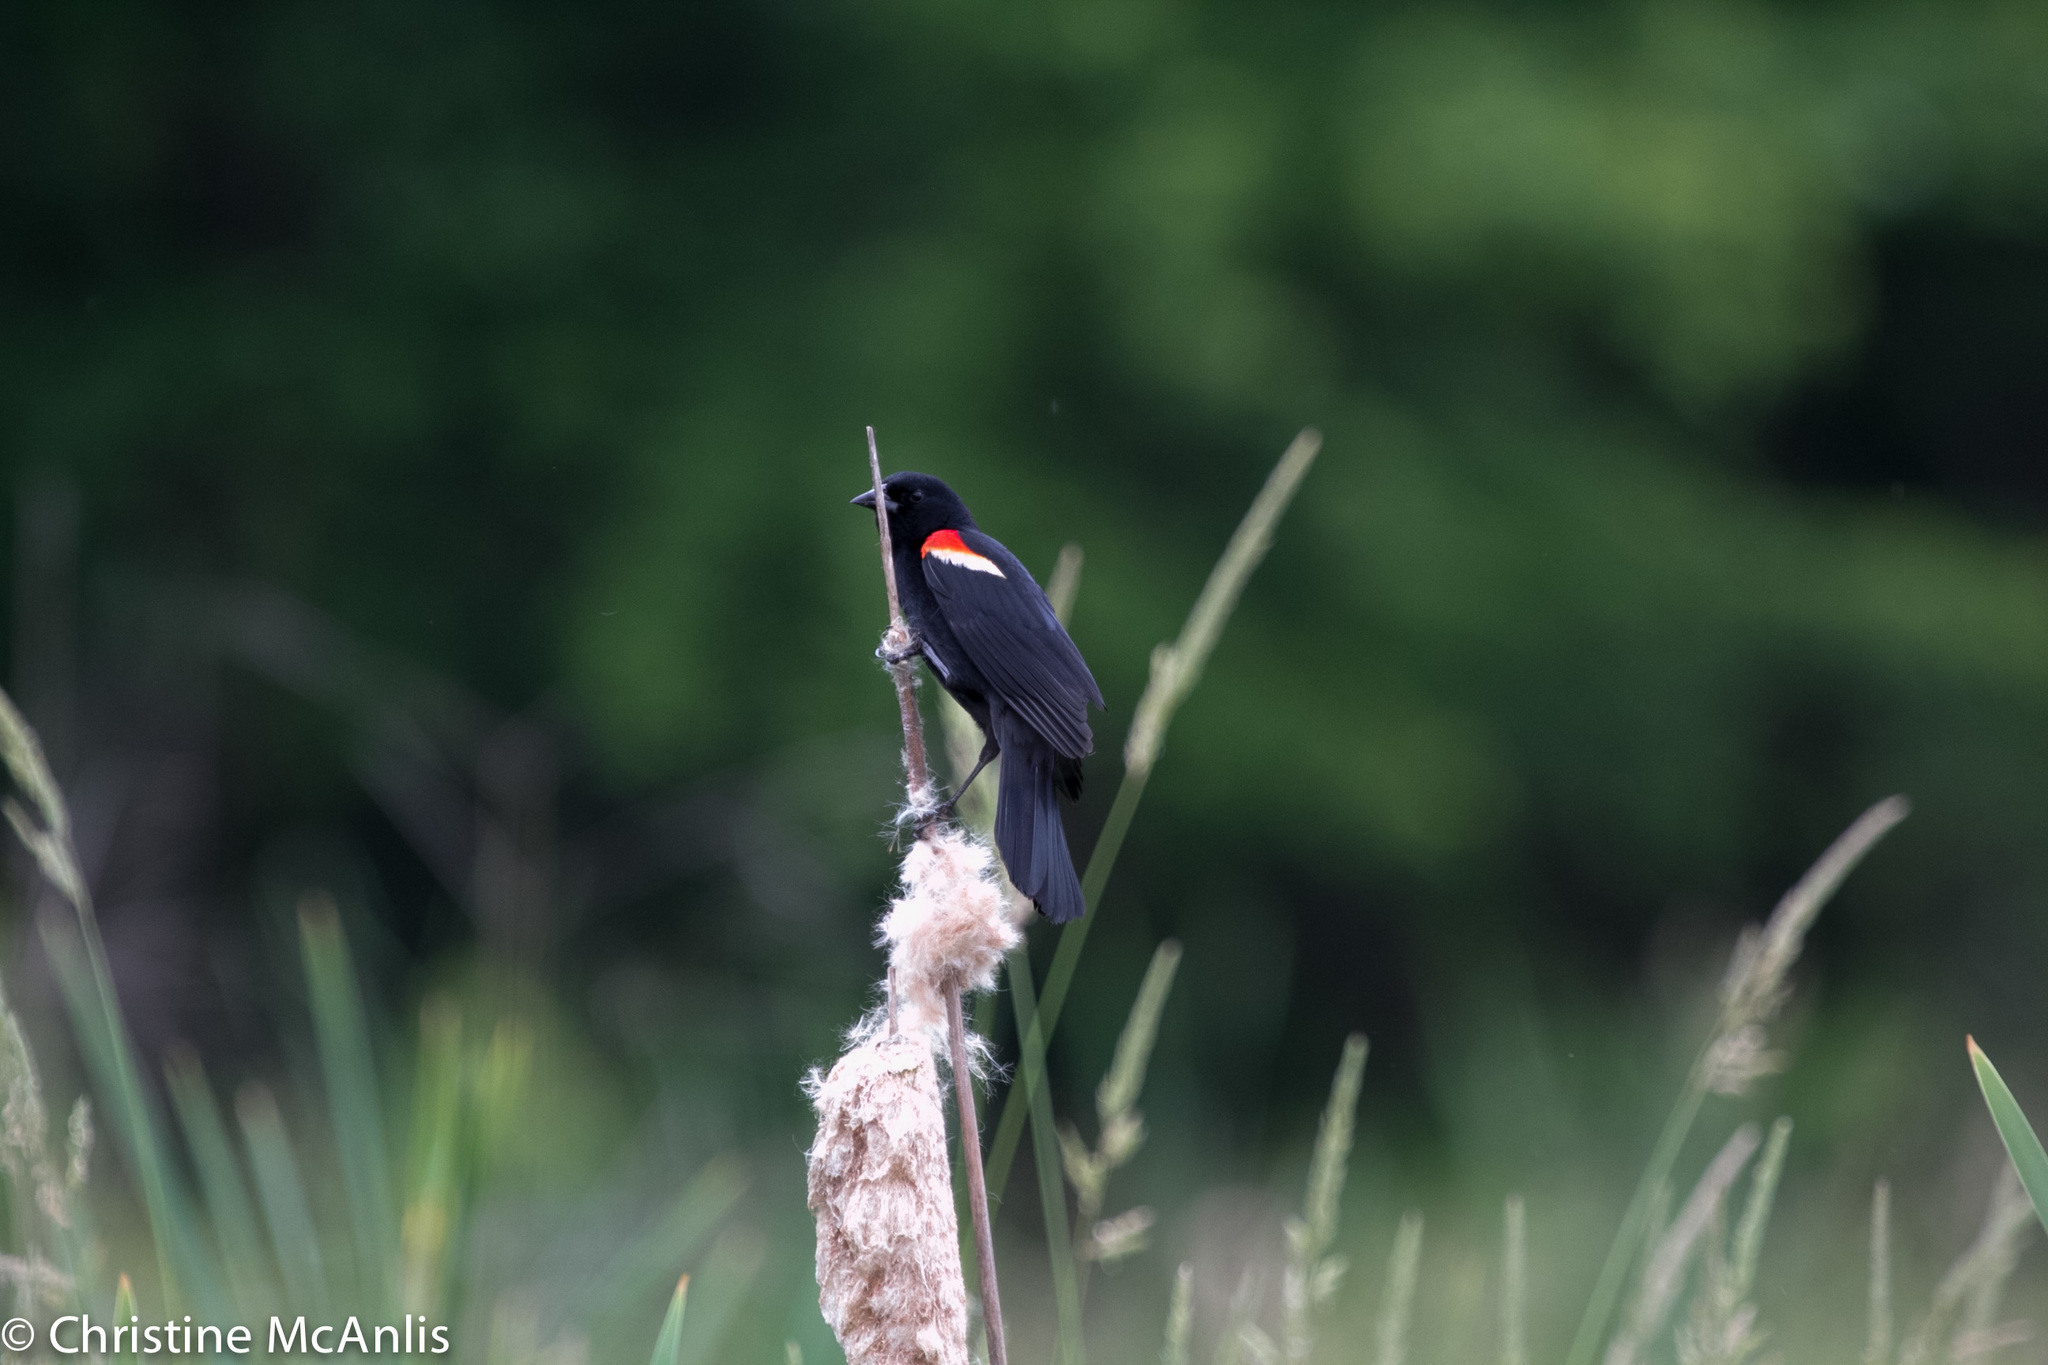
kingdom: Animalia
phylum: Chordata
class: Aves
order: Passeriformes
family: Icteridae
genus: Agelaius
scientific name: Agelaius phoeniceus
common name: Red-winged blackbird
